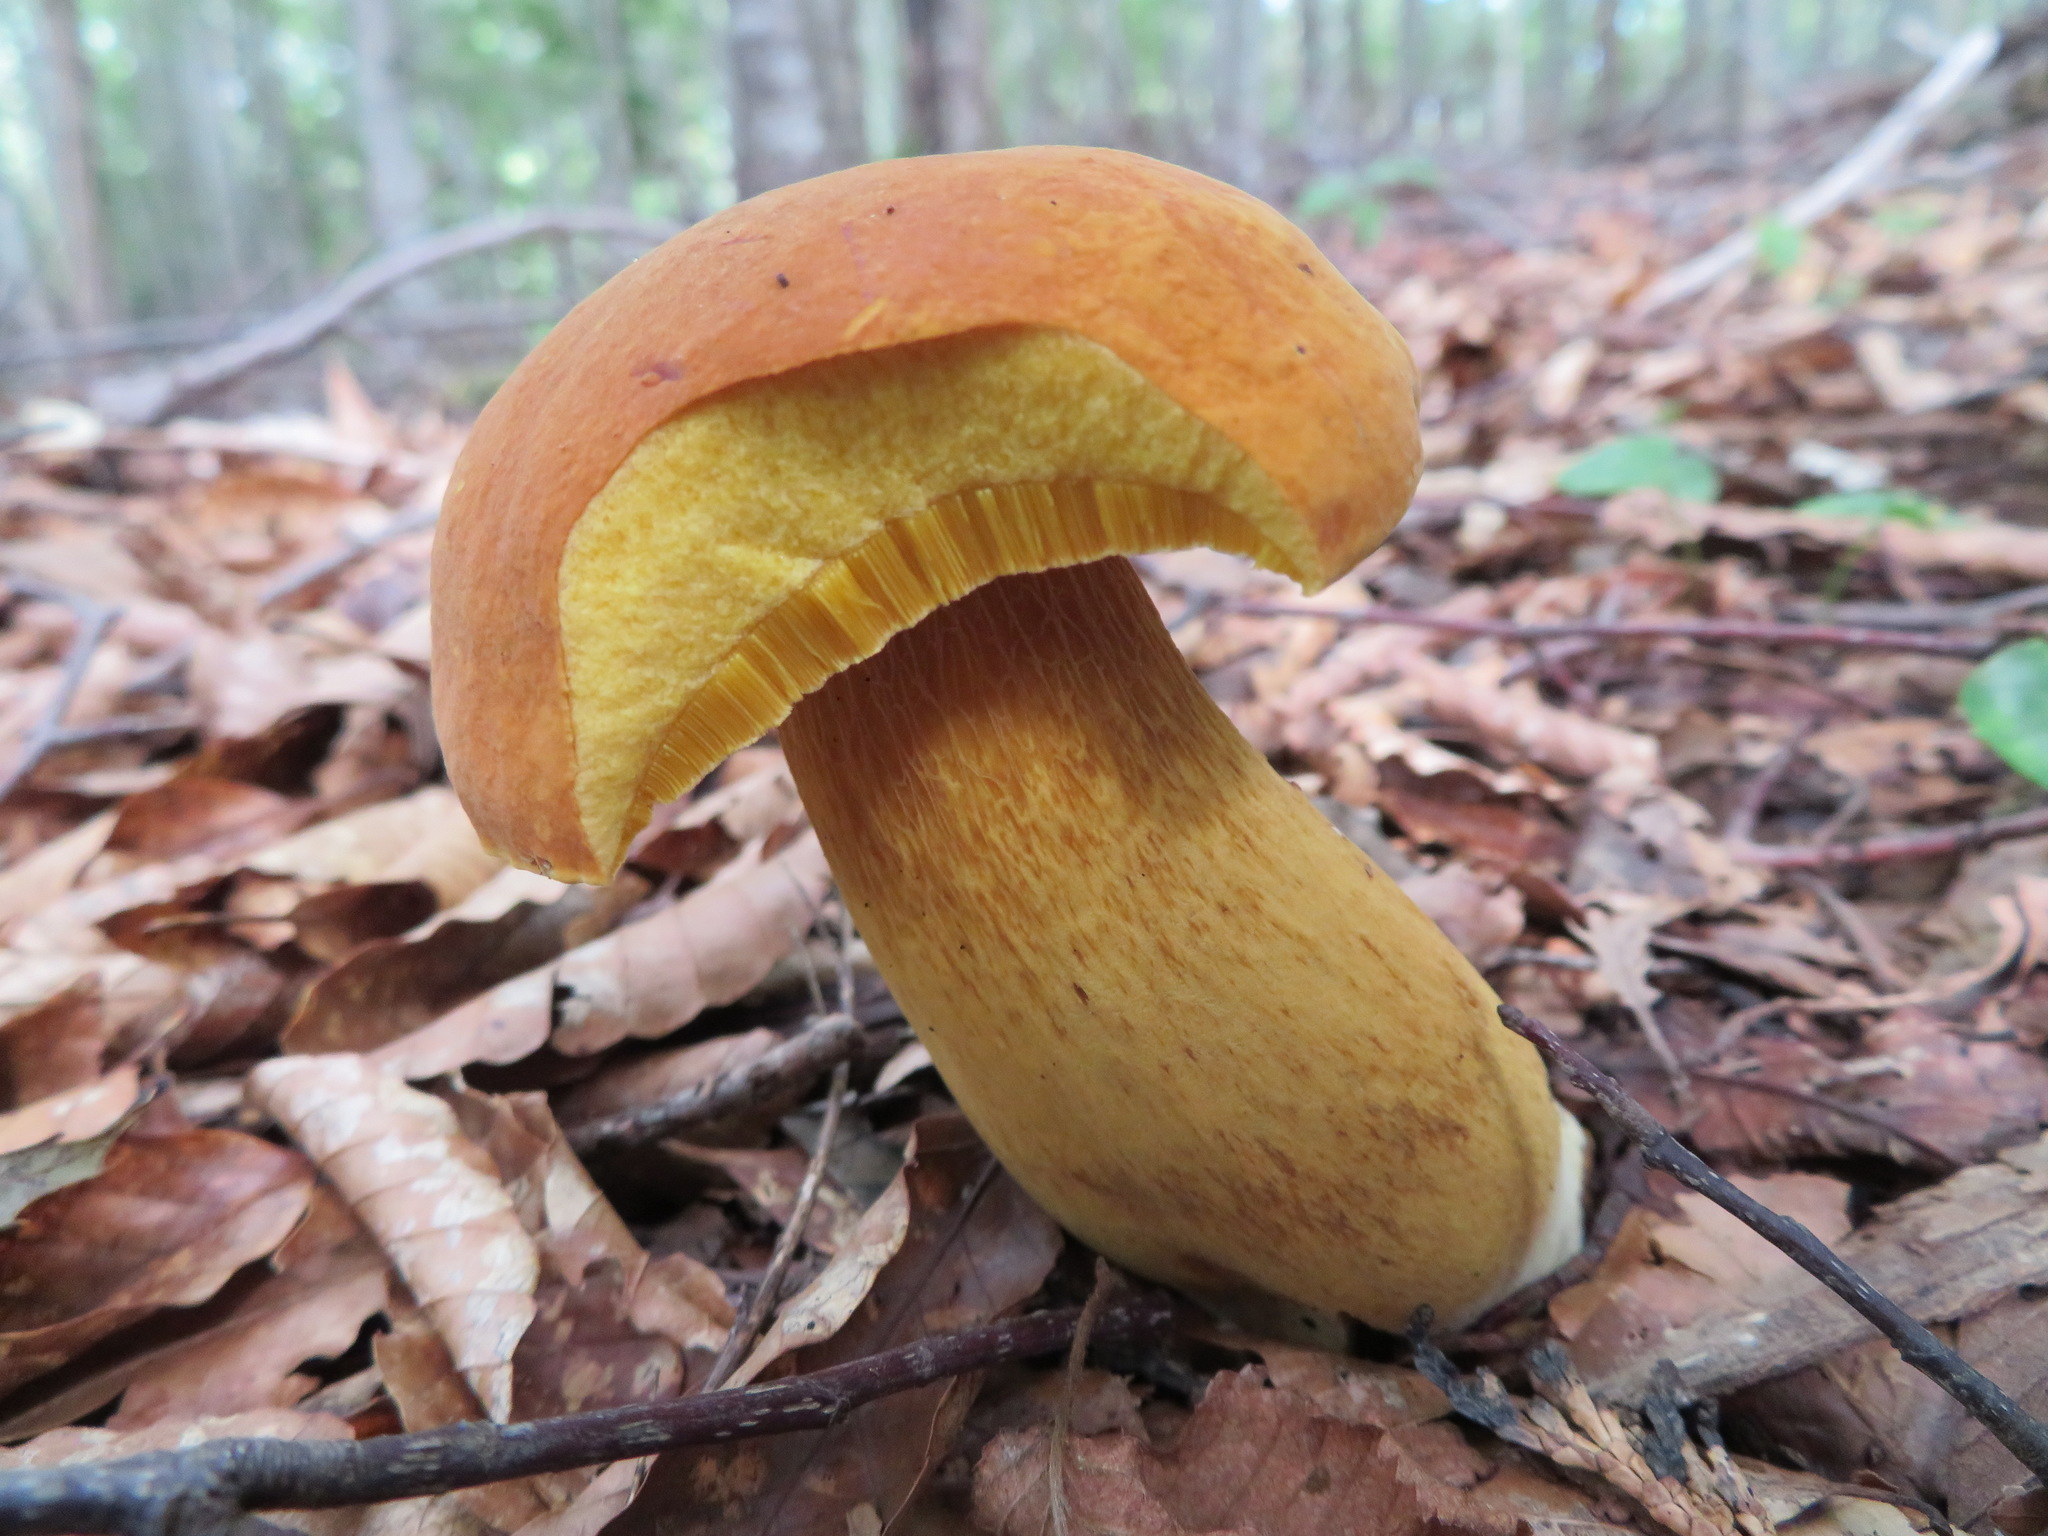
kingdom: Fungi
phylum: Basidiomycota
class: Agaricomycetes
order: Boletales
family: Boletaceae
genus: Boletus
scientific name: Boletus auripes
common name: Butter-foot bolete
